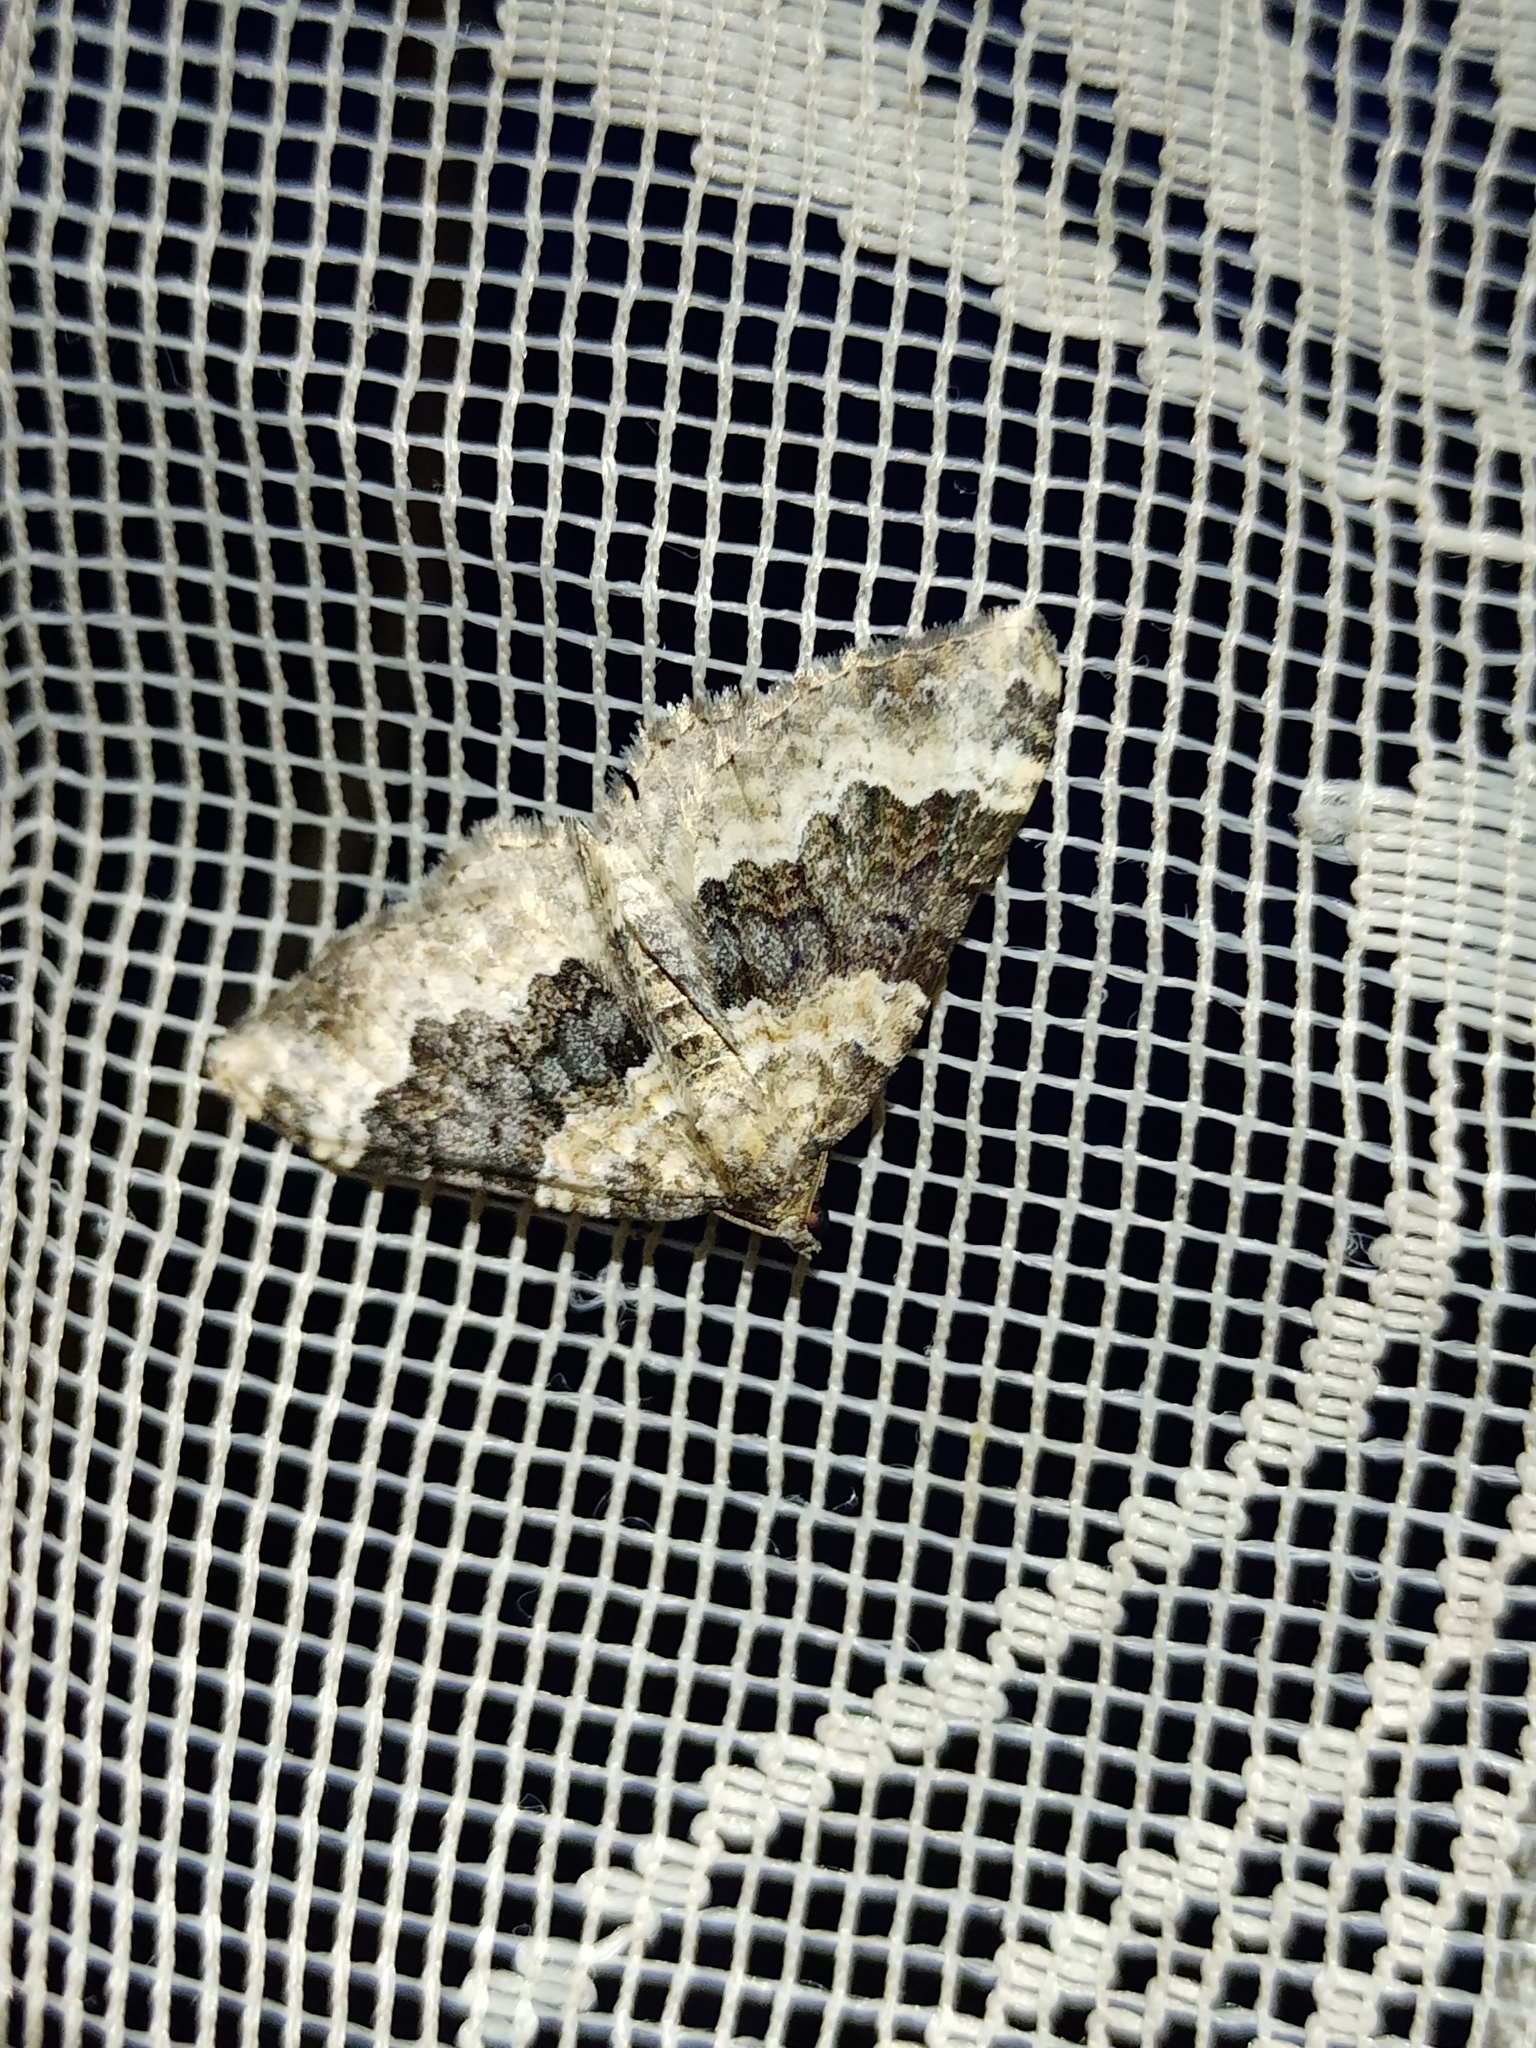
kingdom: Animalia
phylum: Arthropoda
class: Insecta
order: Lepidoptera
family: Geometridae
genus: Epirrhoe
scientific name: Epirrhoe galiata
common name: Galium carpet
